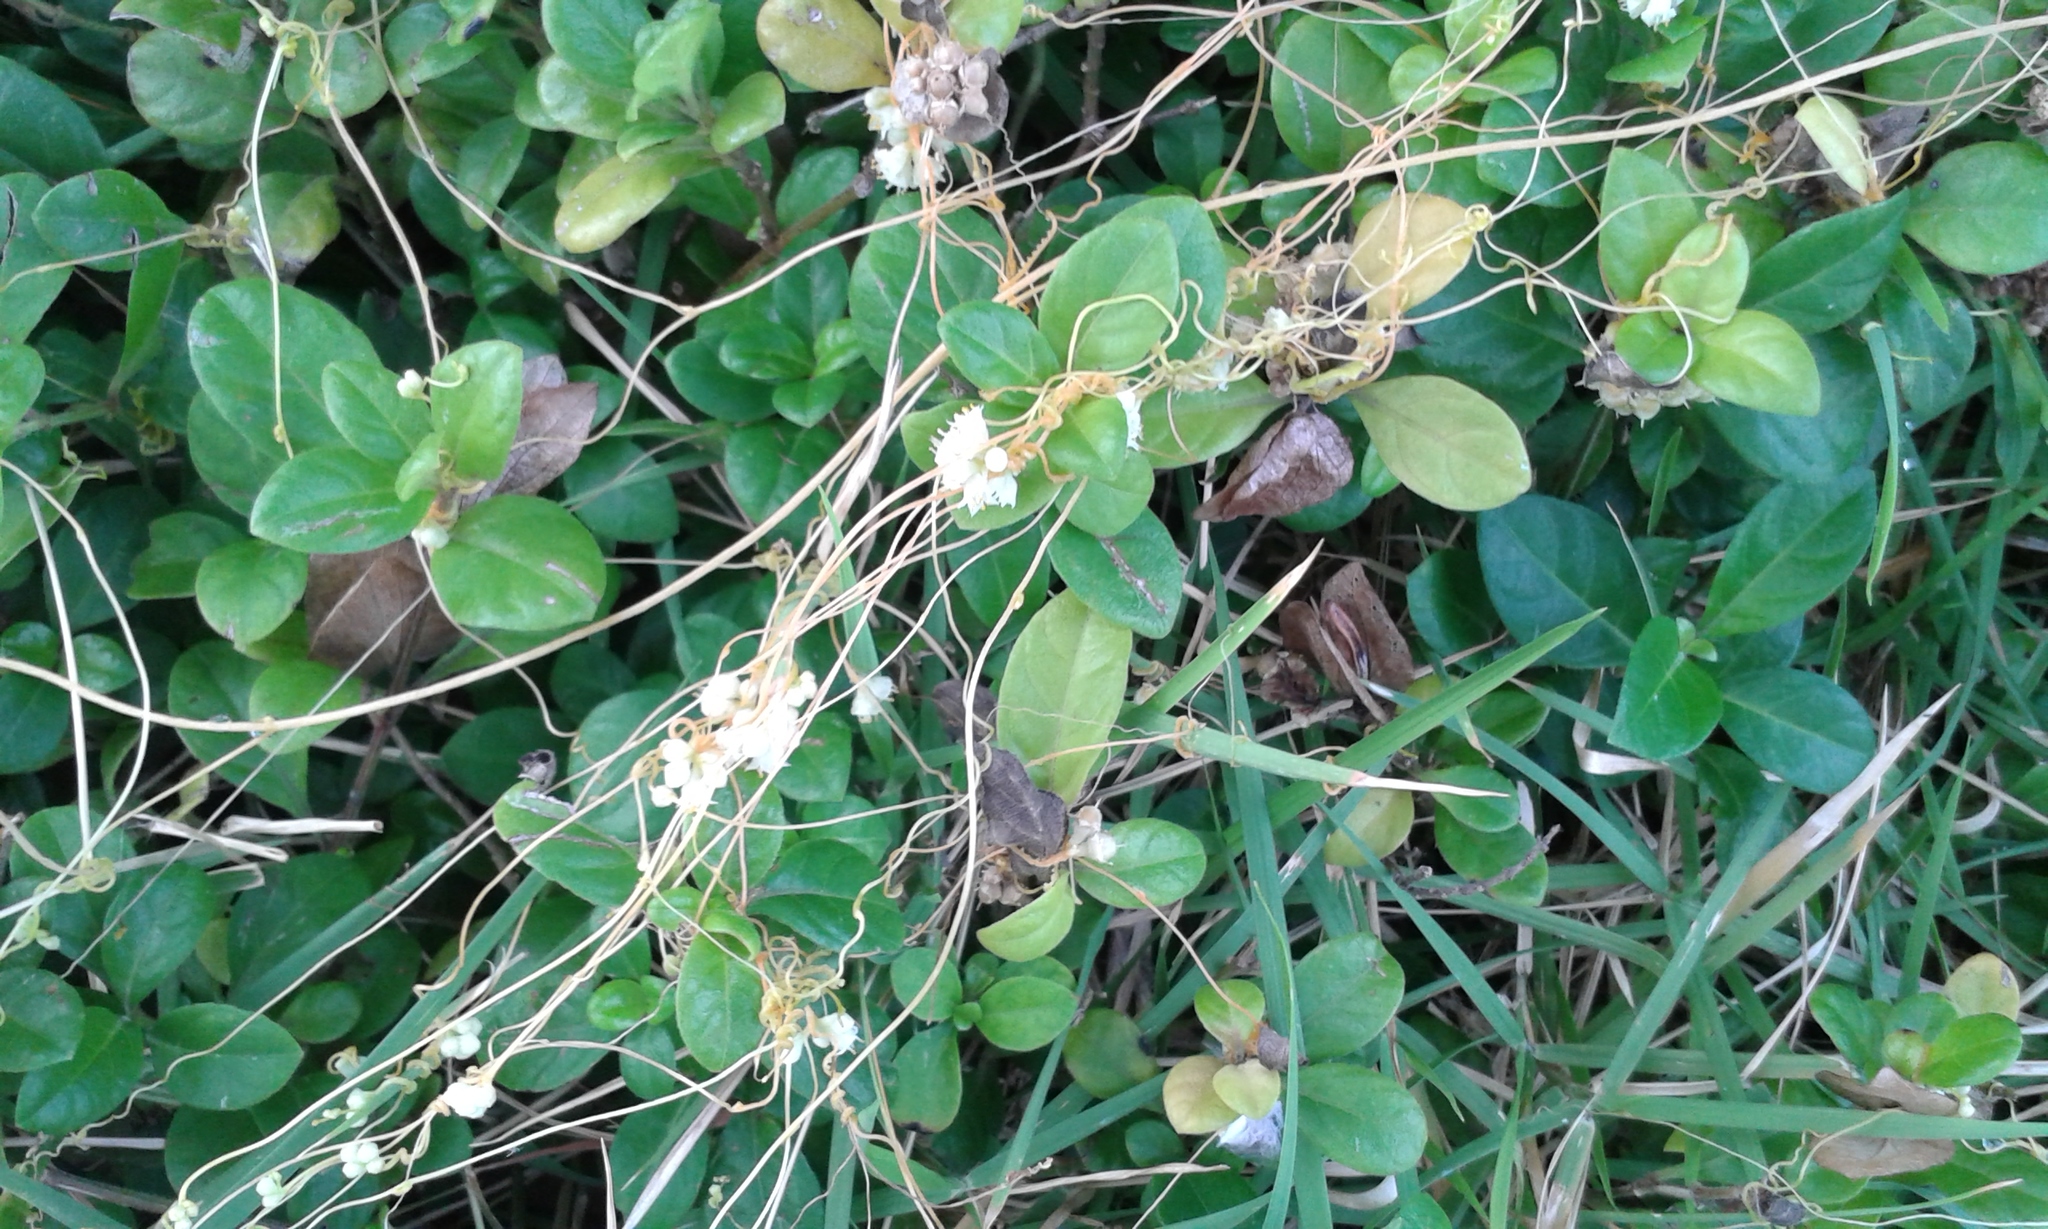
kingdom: Plantae
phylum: Tracheophyta
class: Magnoliopsida
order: Solanales
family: Convolvulaceae
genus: Cuscuta
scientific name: Cuscuta campestris
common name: Yellow dodder
